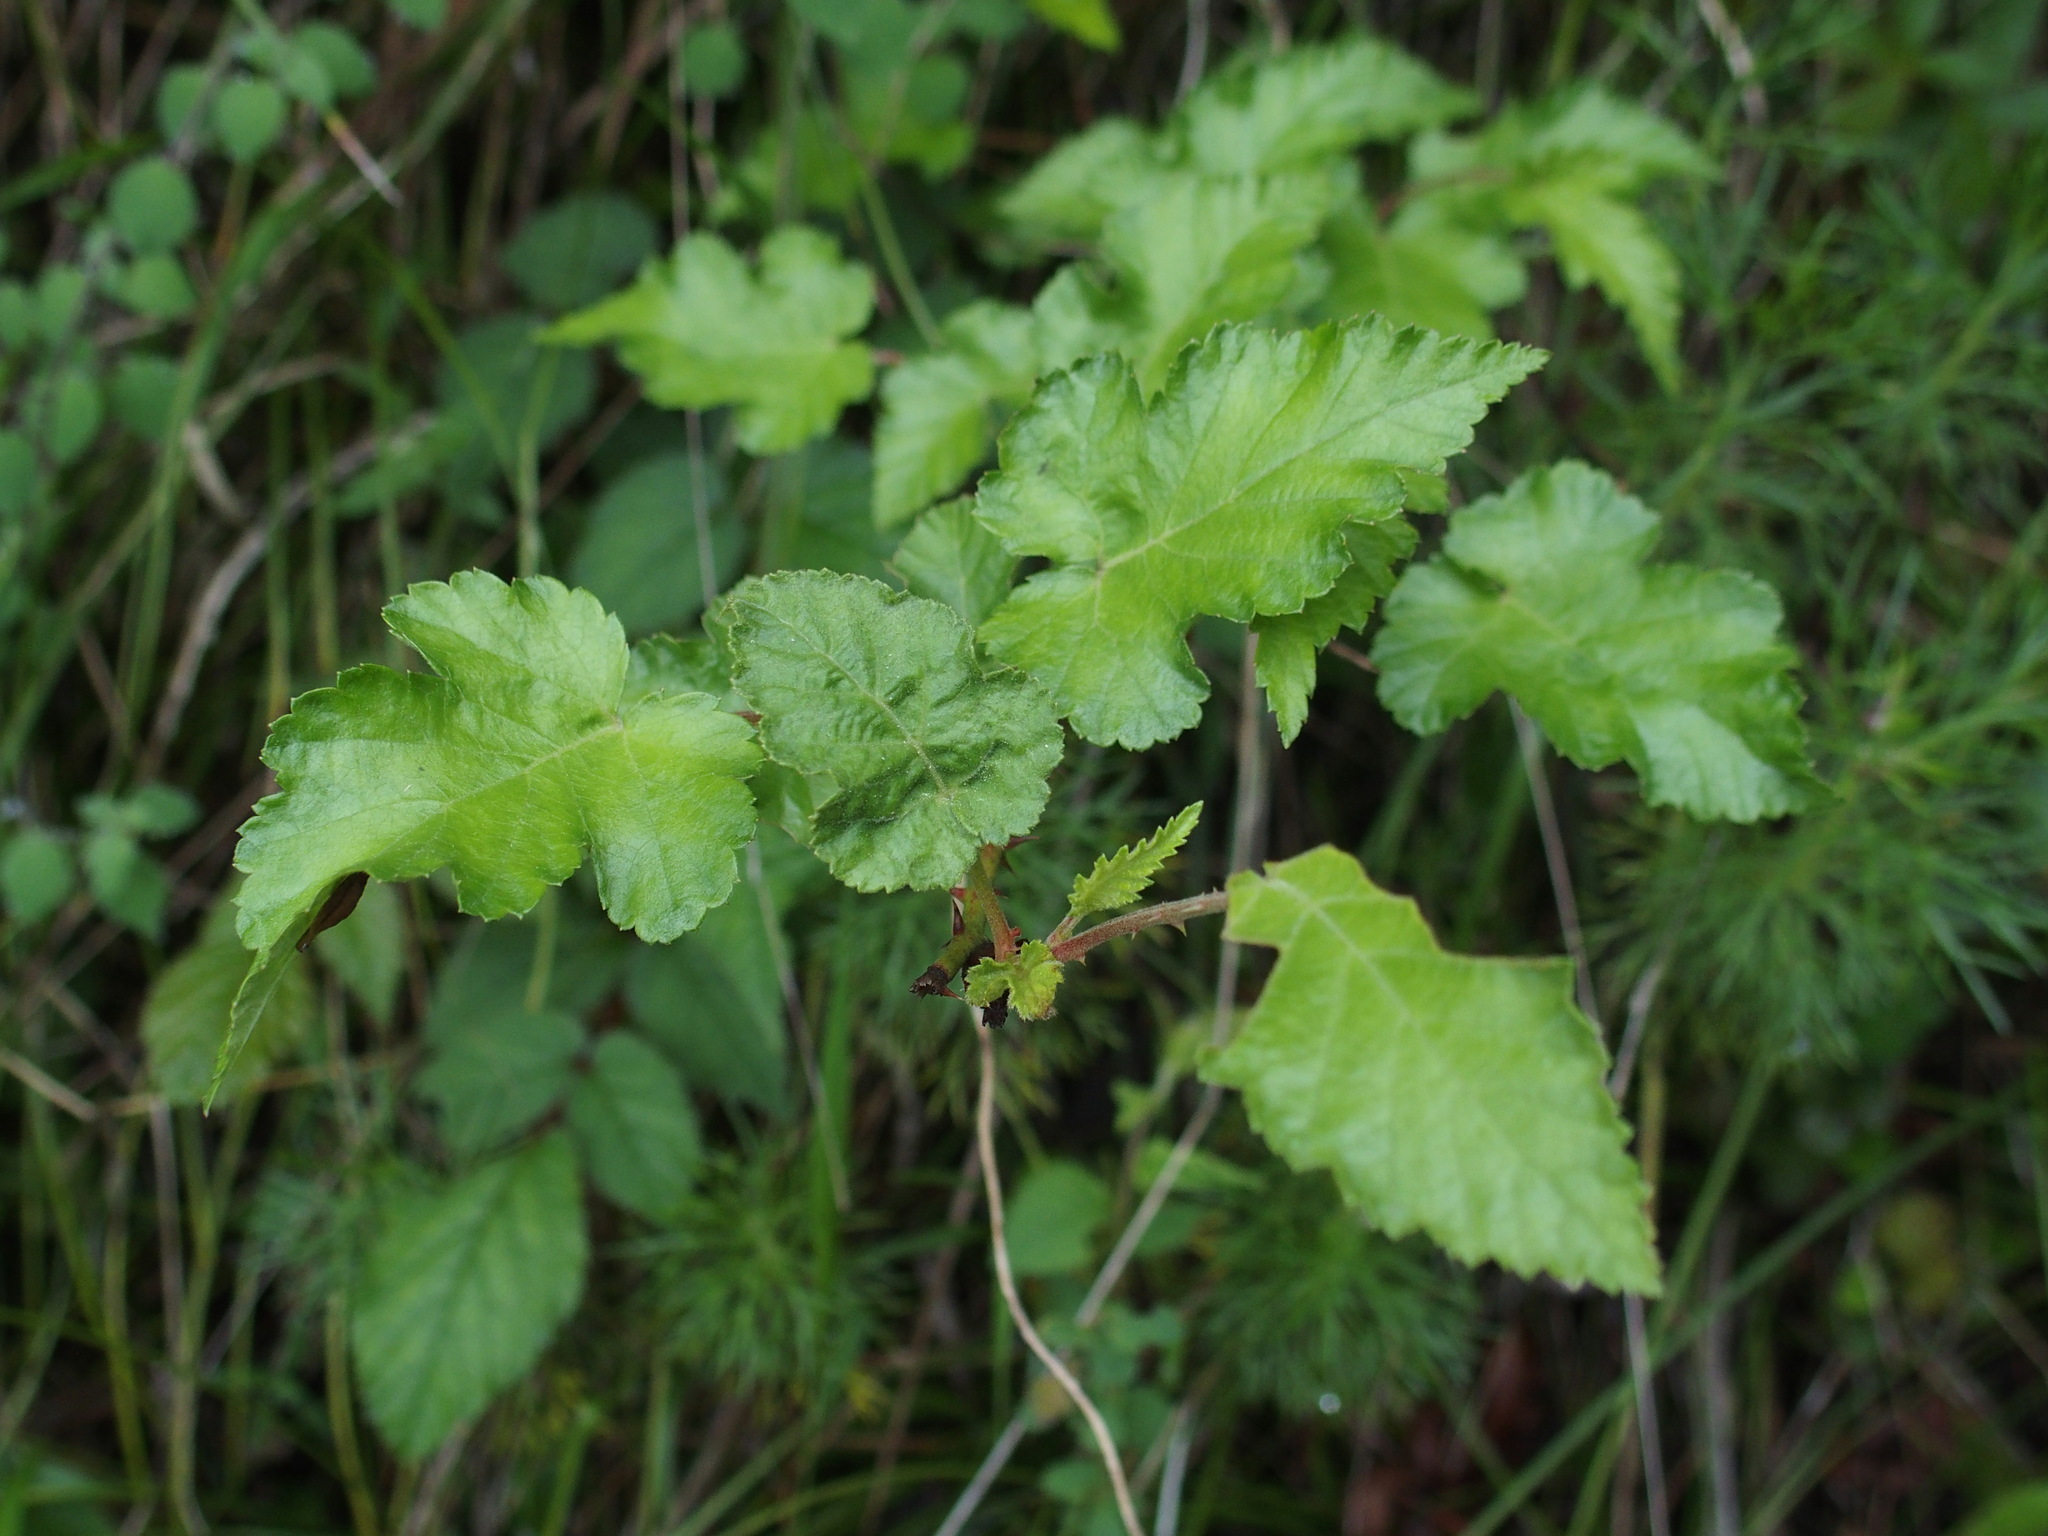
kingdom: Plantae
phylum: Tracheophyta
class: Magnoliopsida
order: Rosales
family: Rosaceae
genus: Rubus
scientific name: Rubus taitoensis
